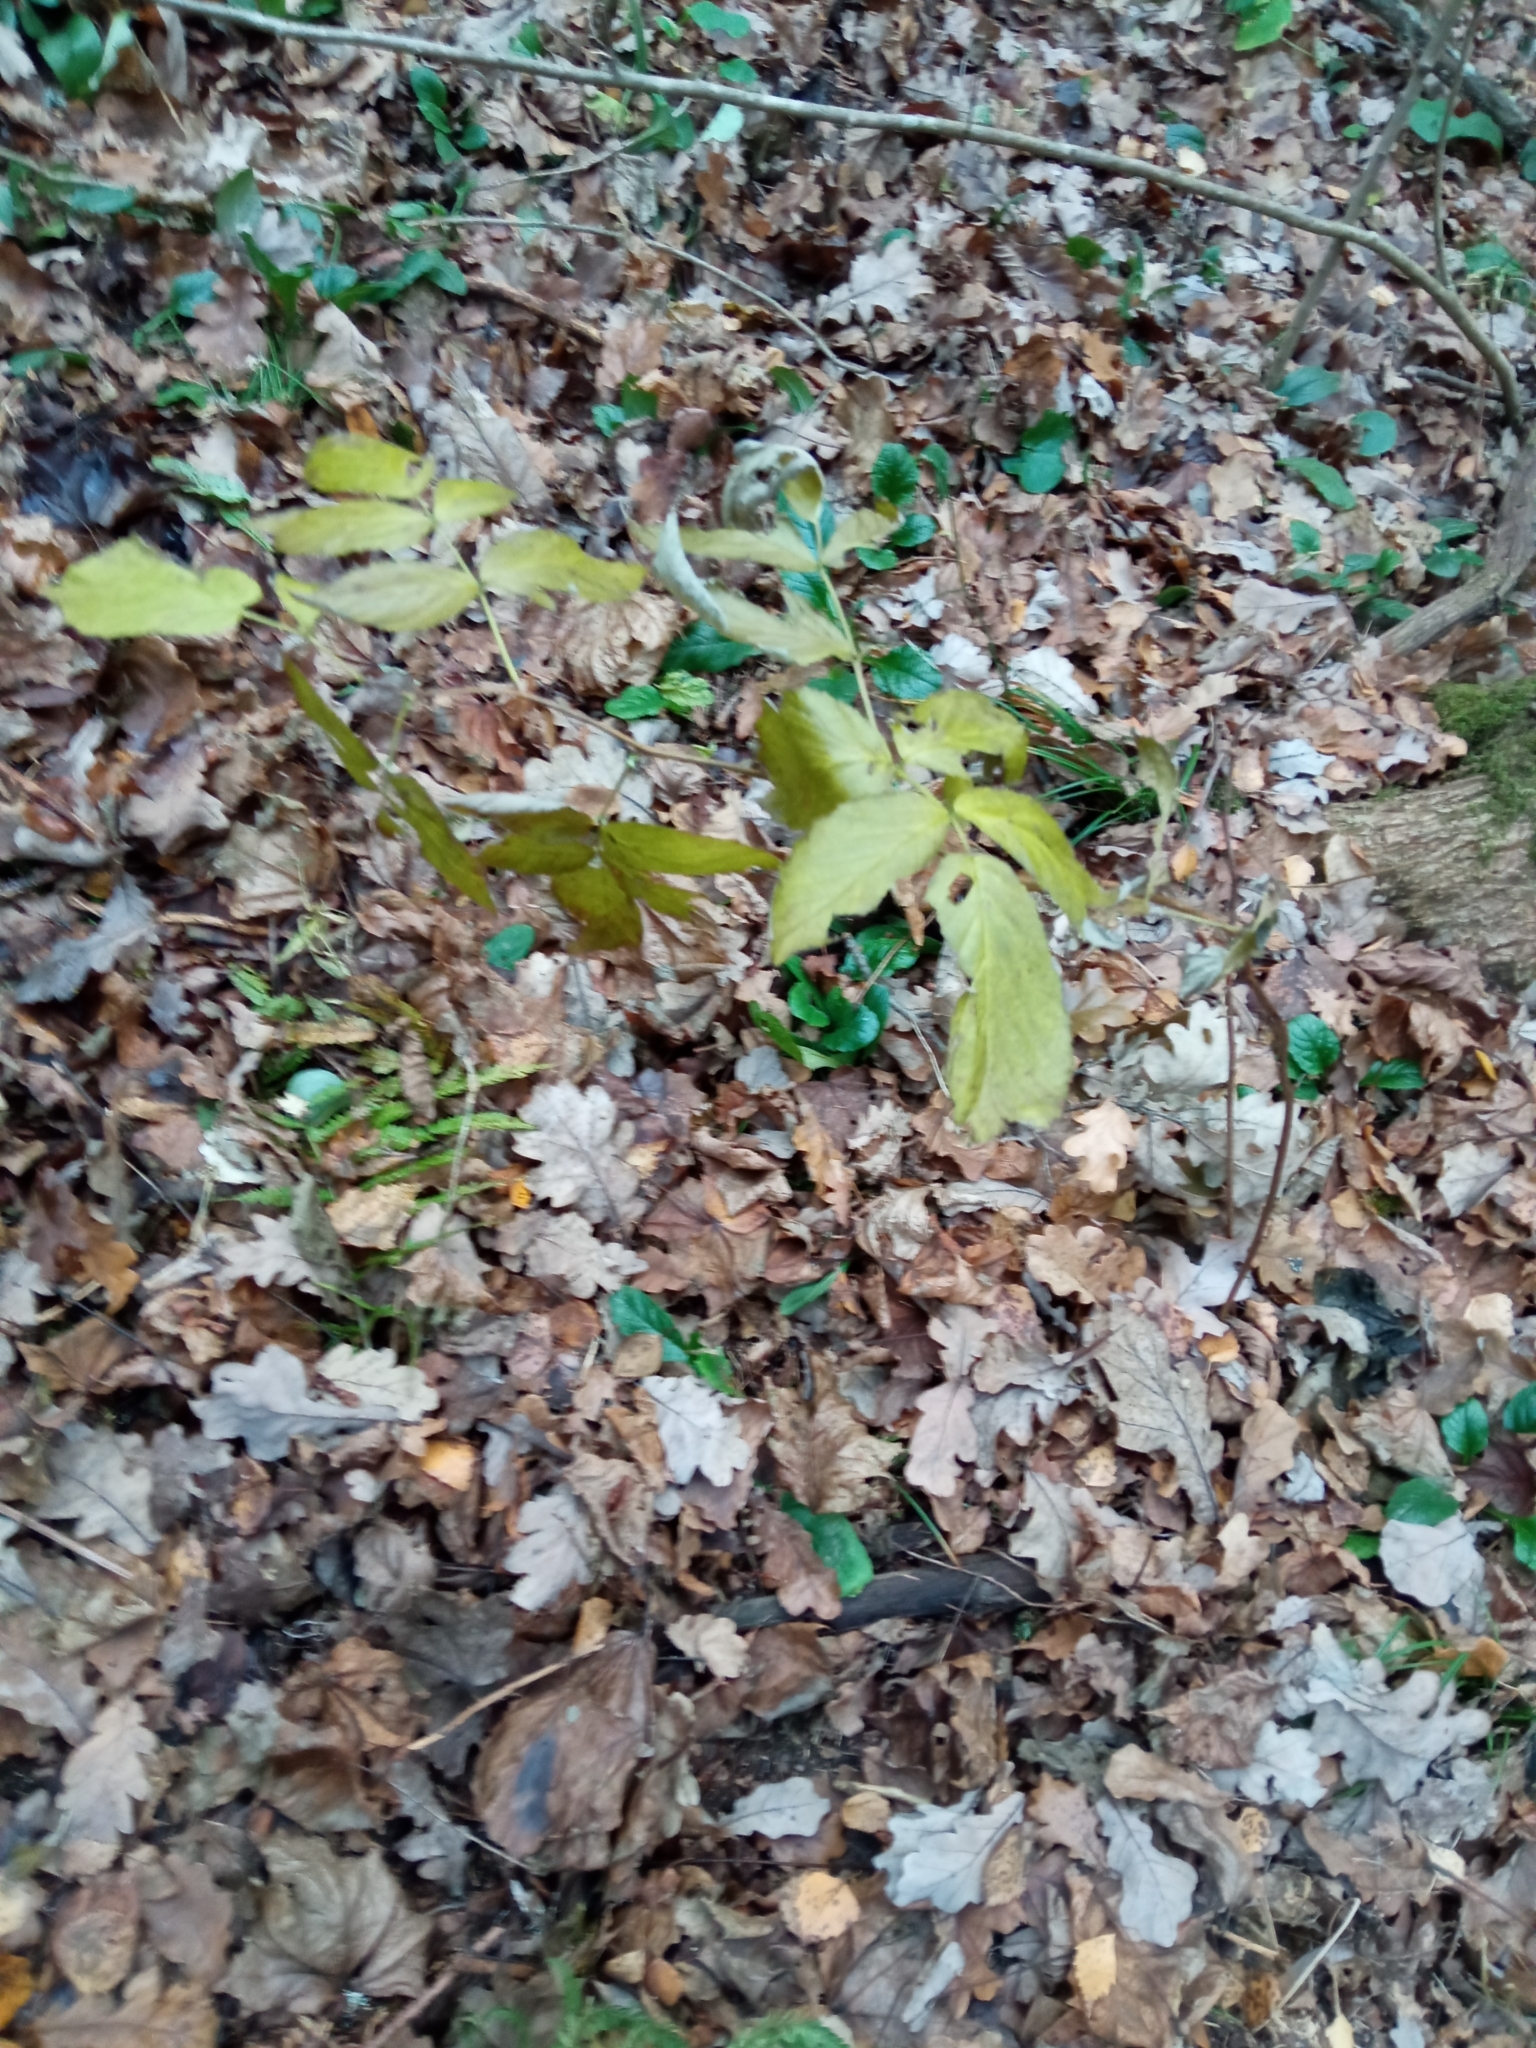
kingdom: Plantae
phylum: Tracheophyta
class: Magnoliopsida
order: Rosales
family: Rosaceae
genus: Rubus
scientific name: Rubus idaeus
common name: Raspberry
